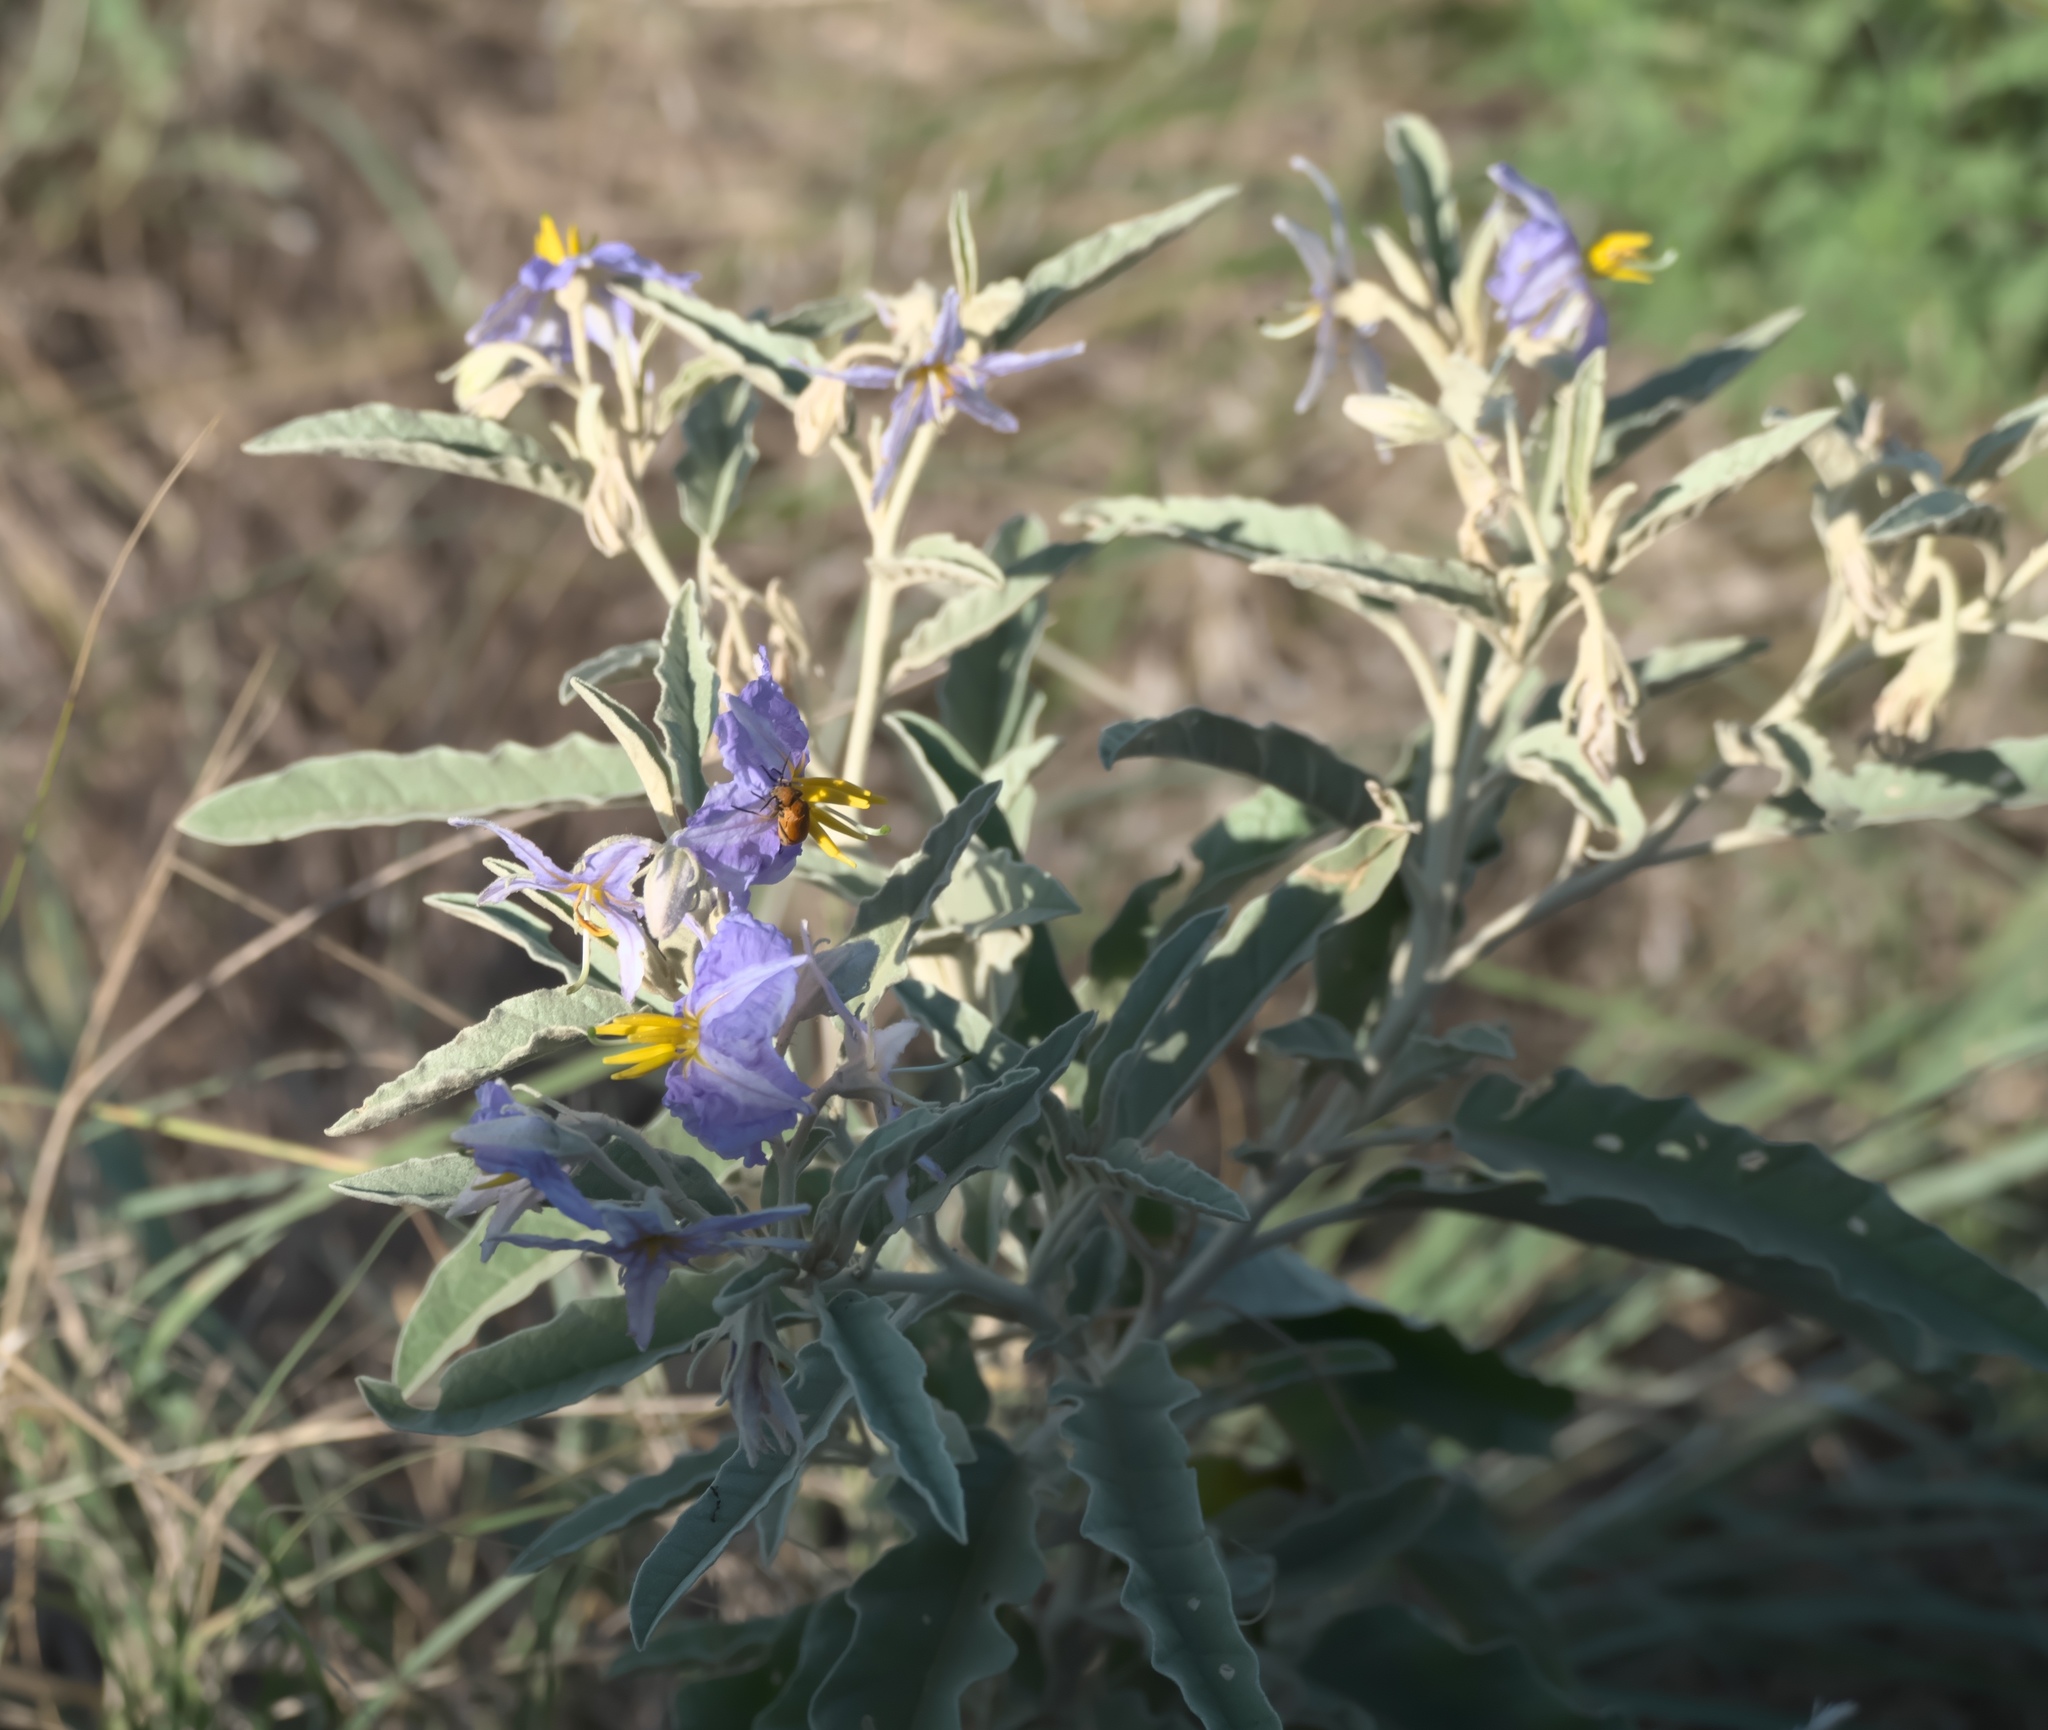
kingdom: Plantae
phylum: Tracheophyta
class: Magnoliopsida
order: Solanales
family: Solanaceae
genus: Solanum
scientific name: Solanum elaeagnifolium
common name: Silverleaf nightshade
